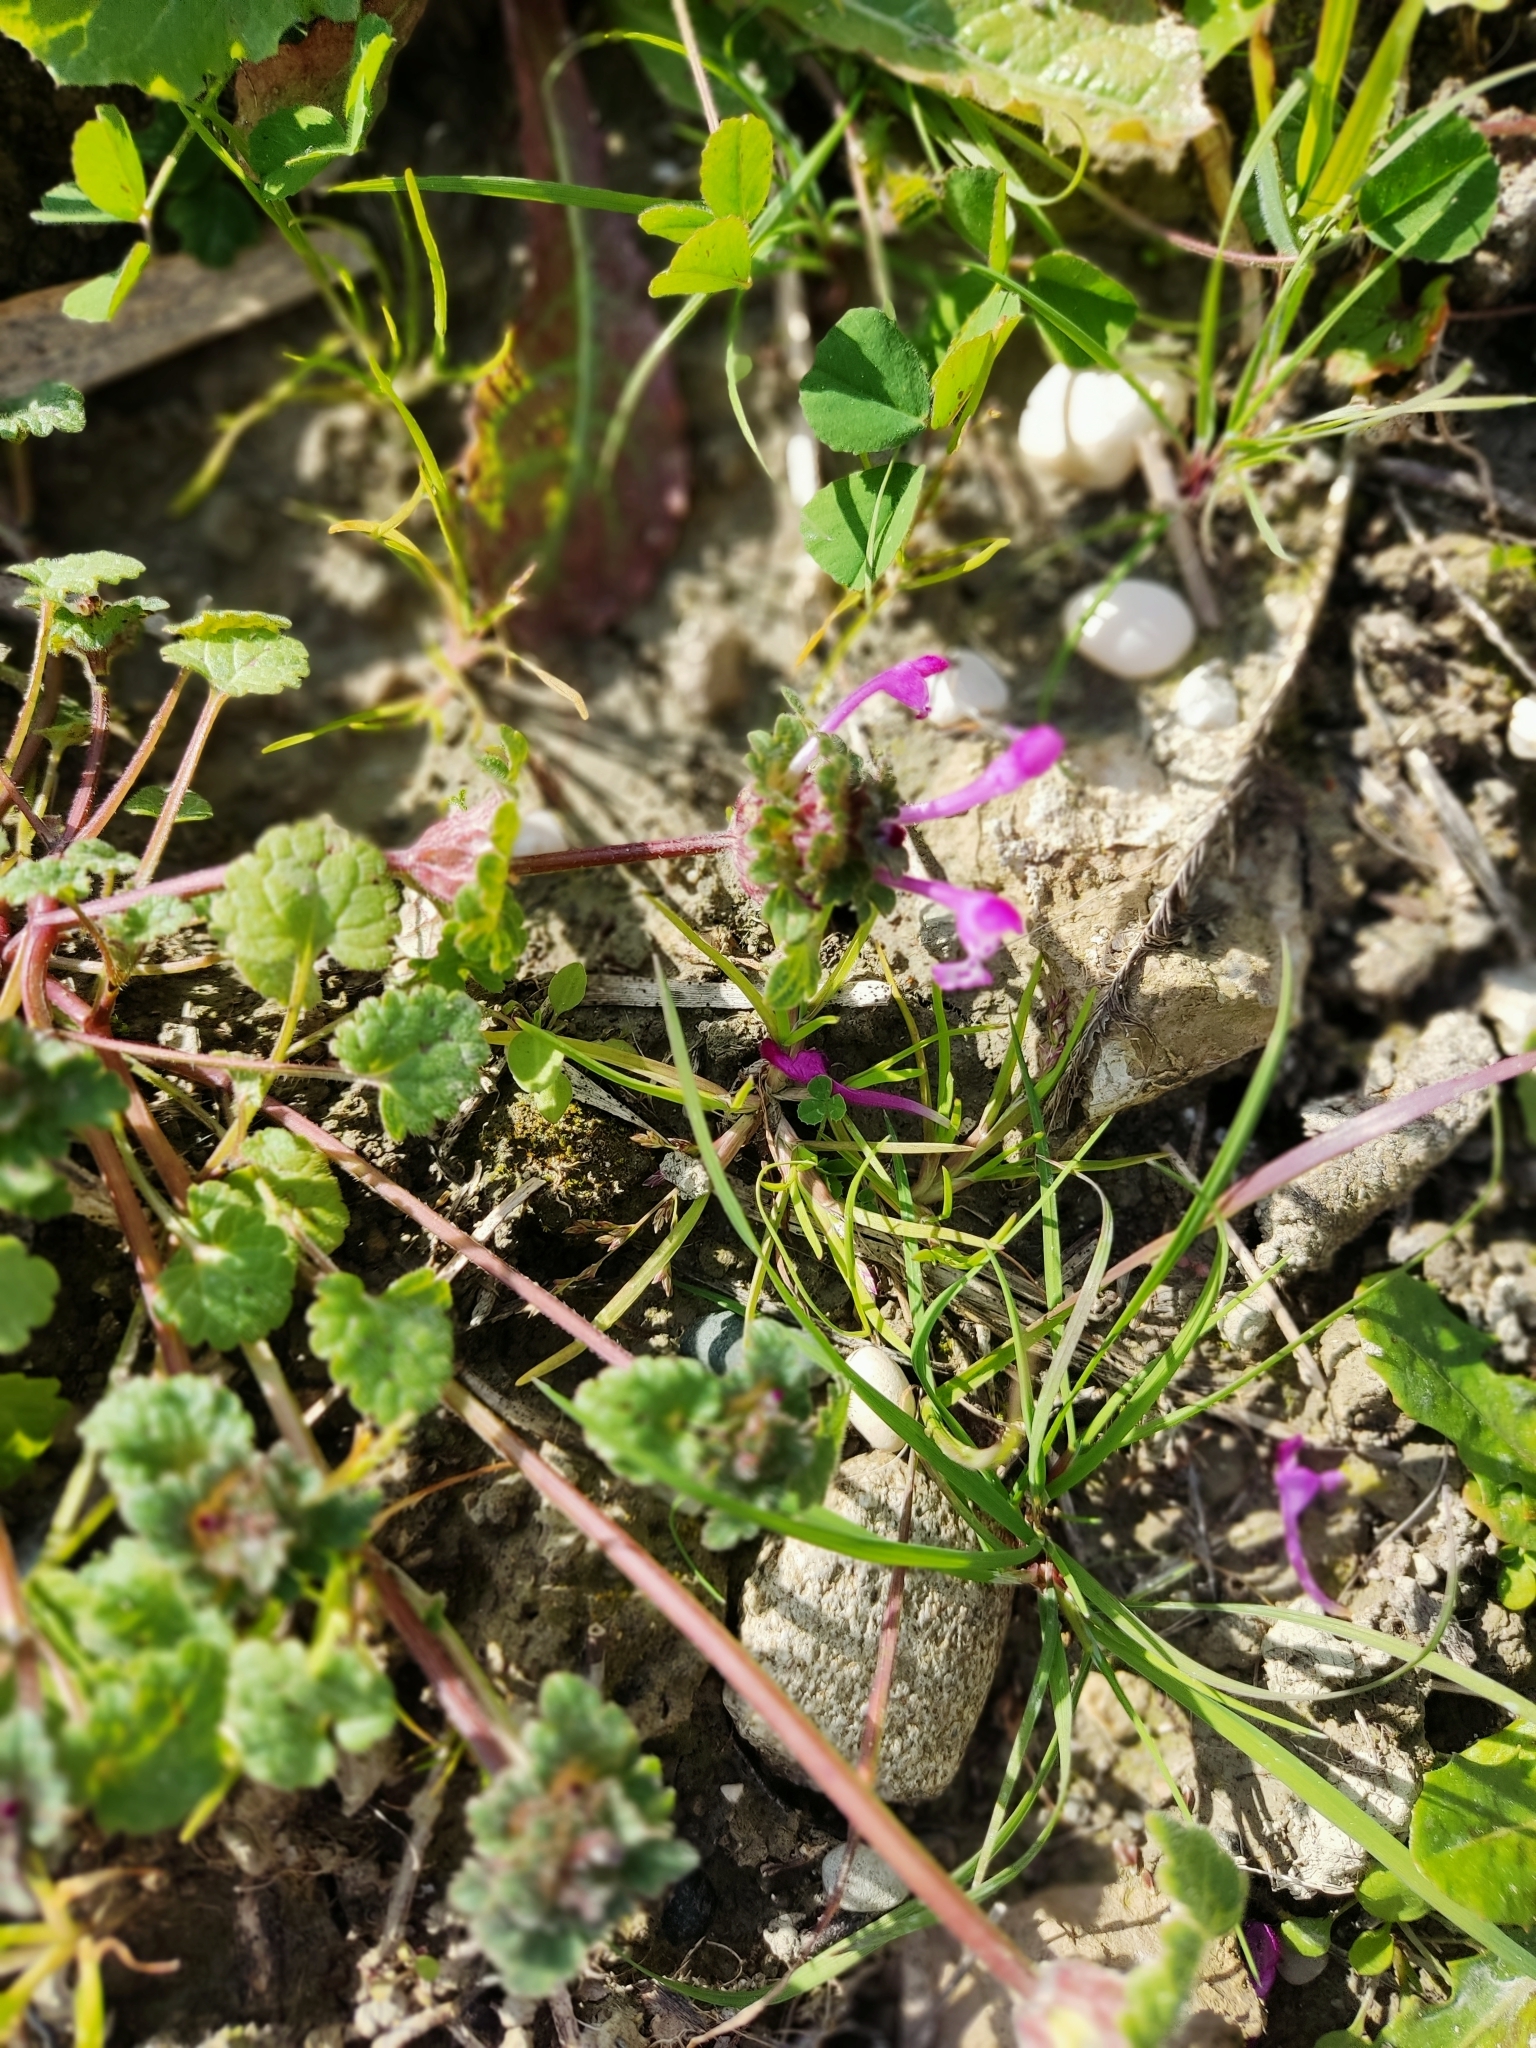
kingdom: Plantae
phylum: Tracheophyta
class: Magnoliopsida
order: Lamiales
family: Lamiaceae
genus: Lamium
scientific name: Lamium amplexicaule
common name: Henbit dead-nettle
